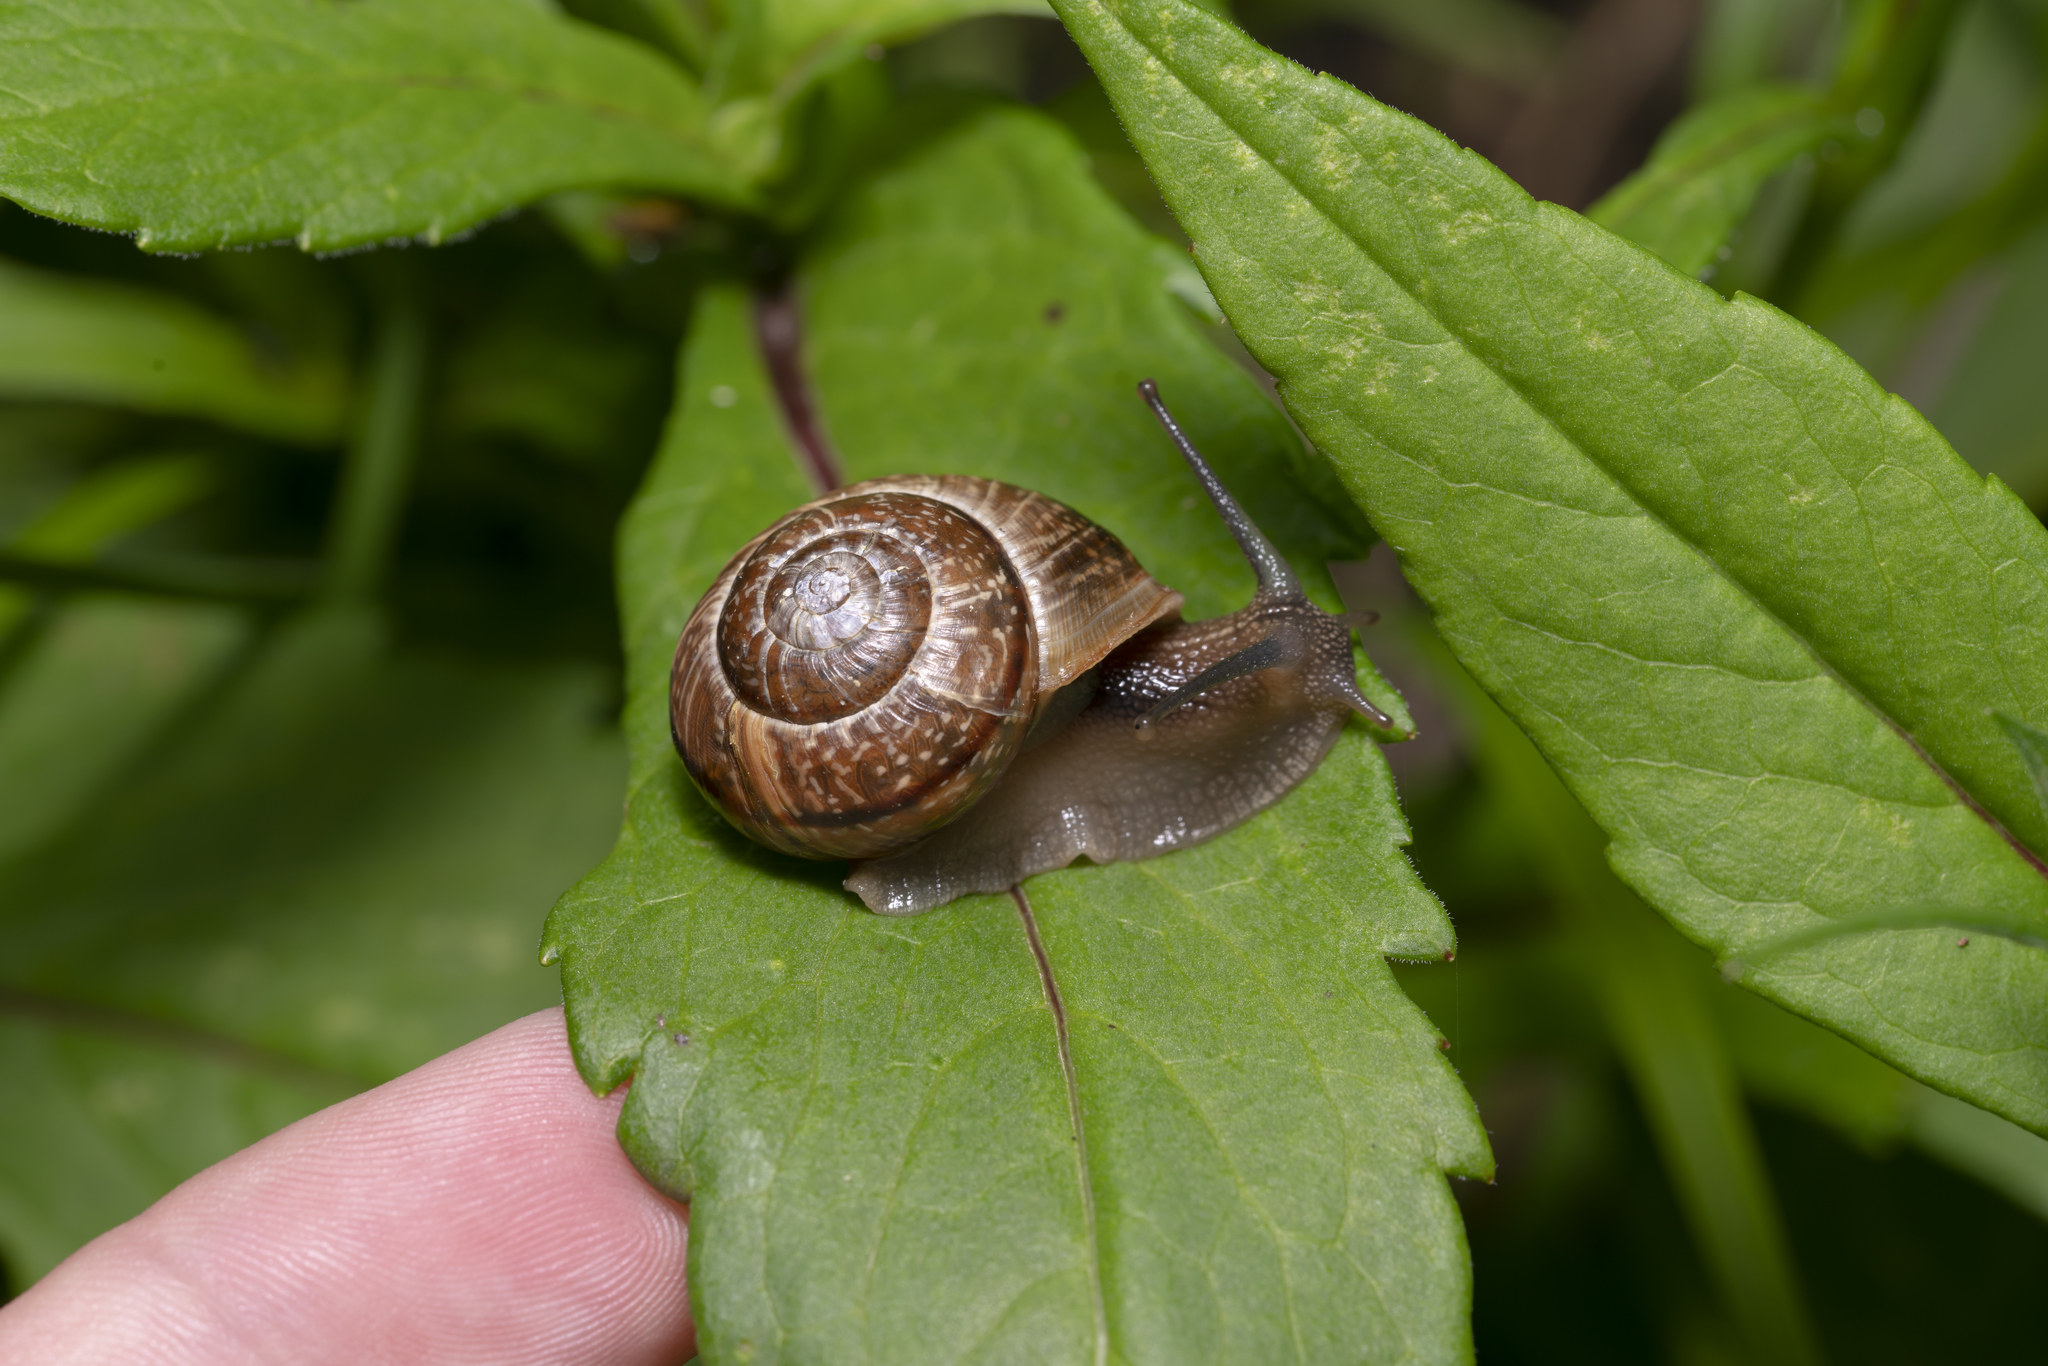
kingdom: Animalia
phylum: Mollusca
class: Gastropoda
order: Stylommatophora
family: Helicidae
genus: Arianta
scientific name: Arianta arbustorum
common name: Copse snail
